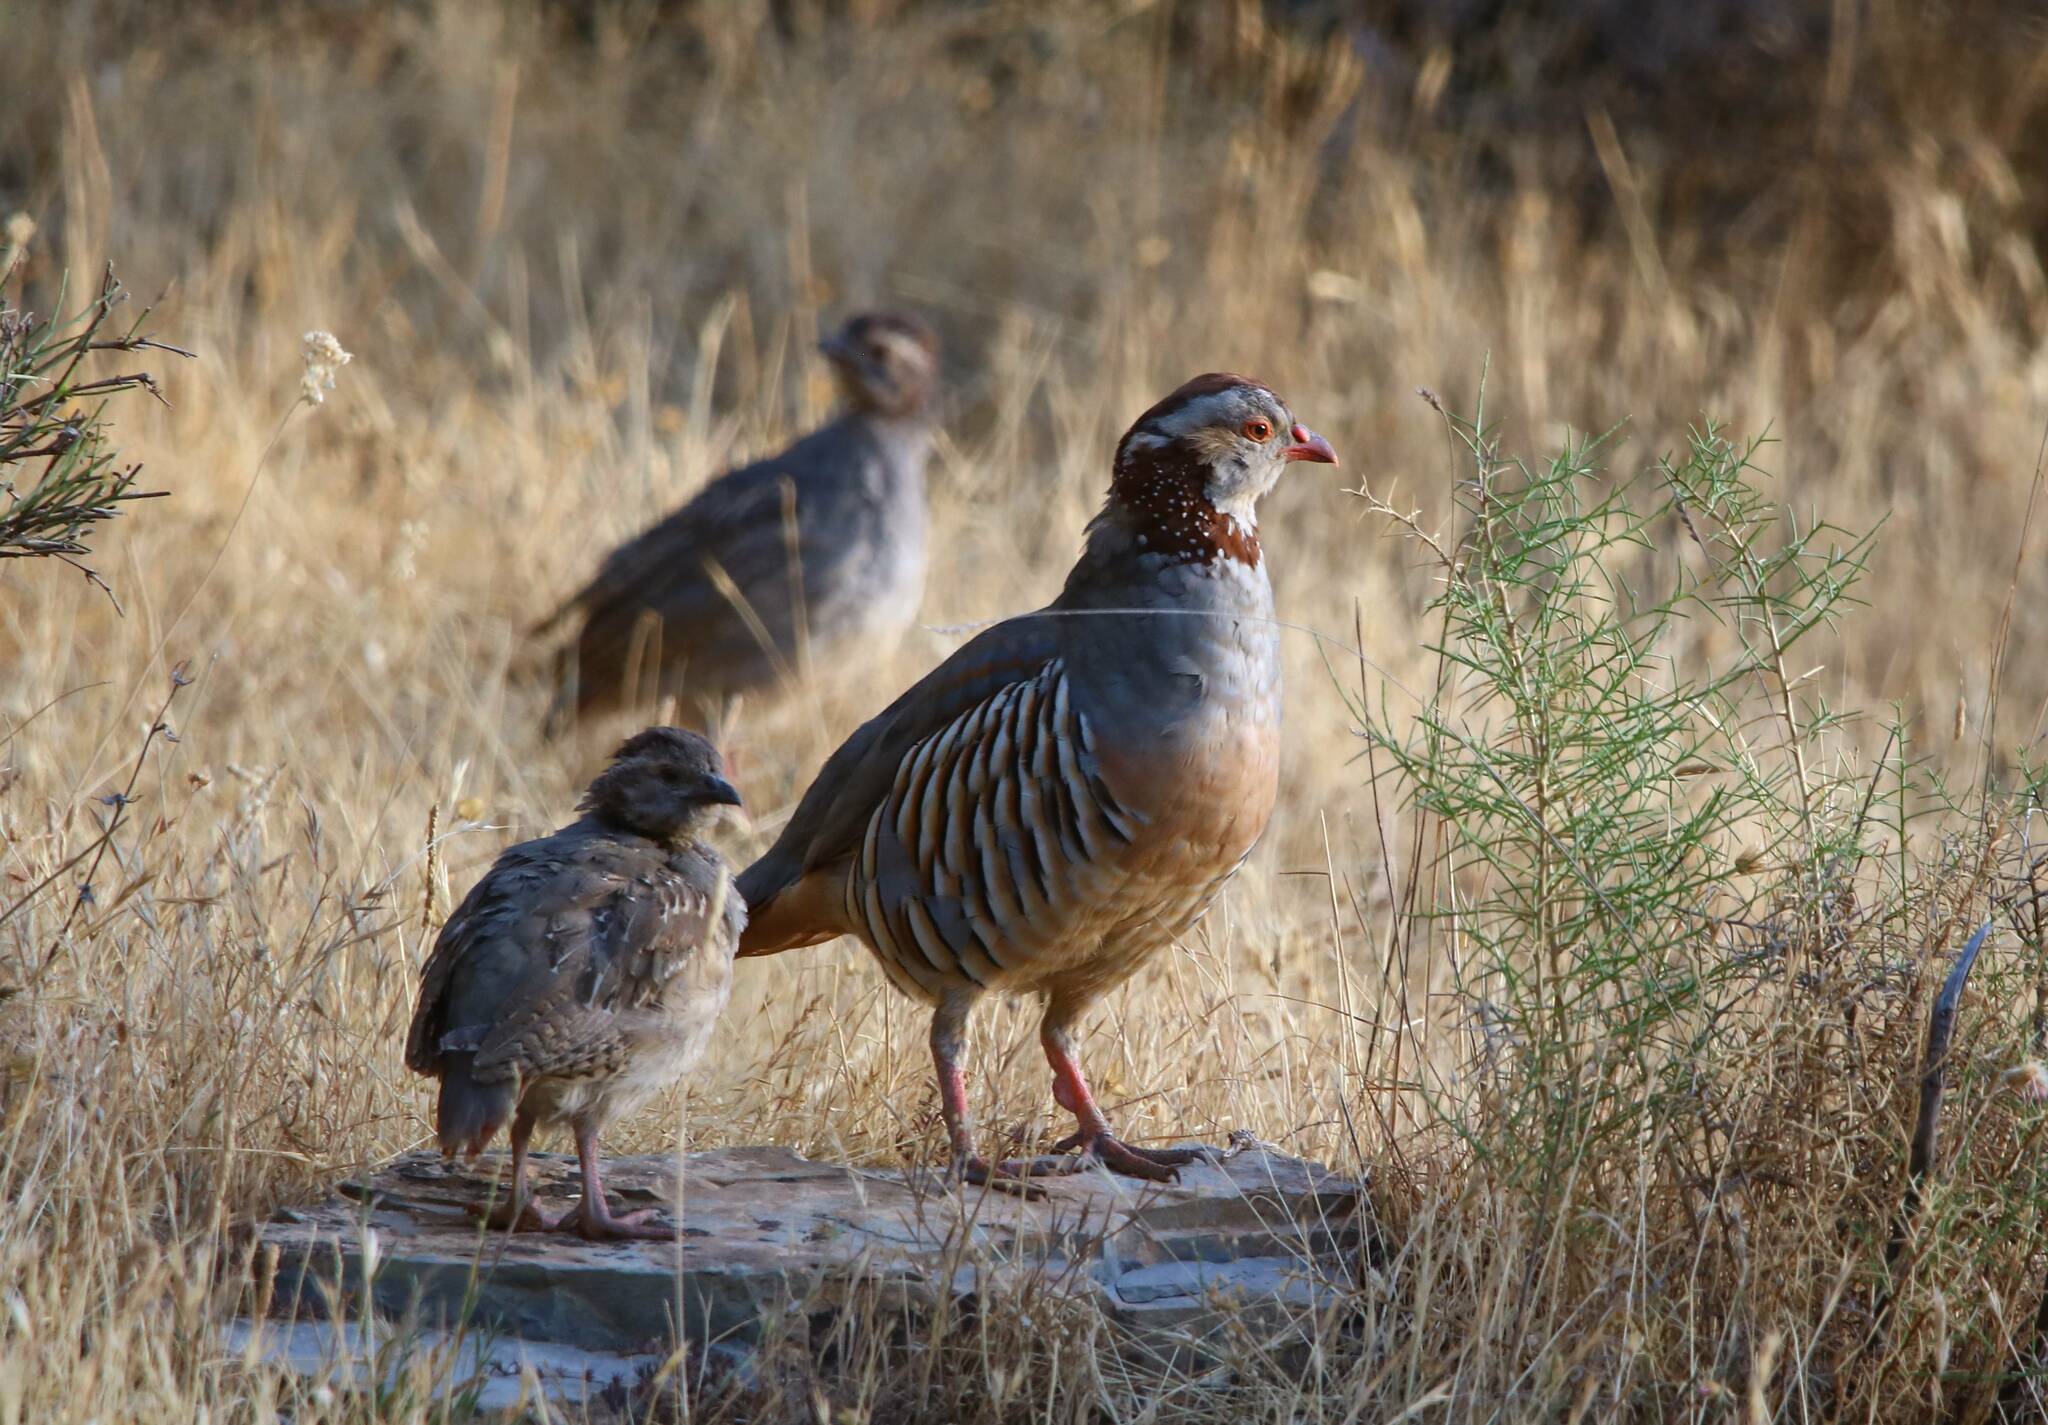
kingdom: Animalia
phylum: Chordata
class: Aves
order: Galliformes
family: Phasianidae
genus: Alectoris
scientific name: Alectoris barbara
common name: Barbary partridge
